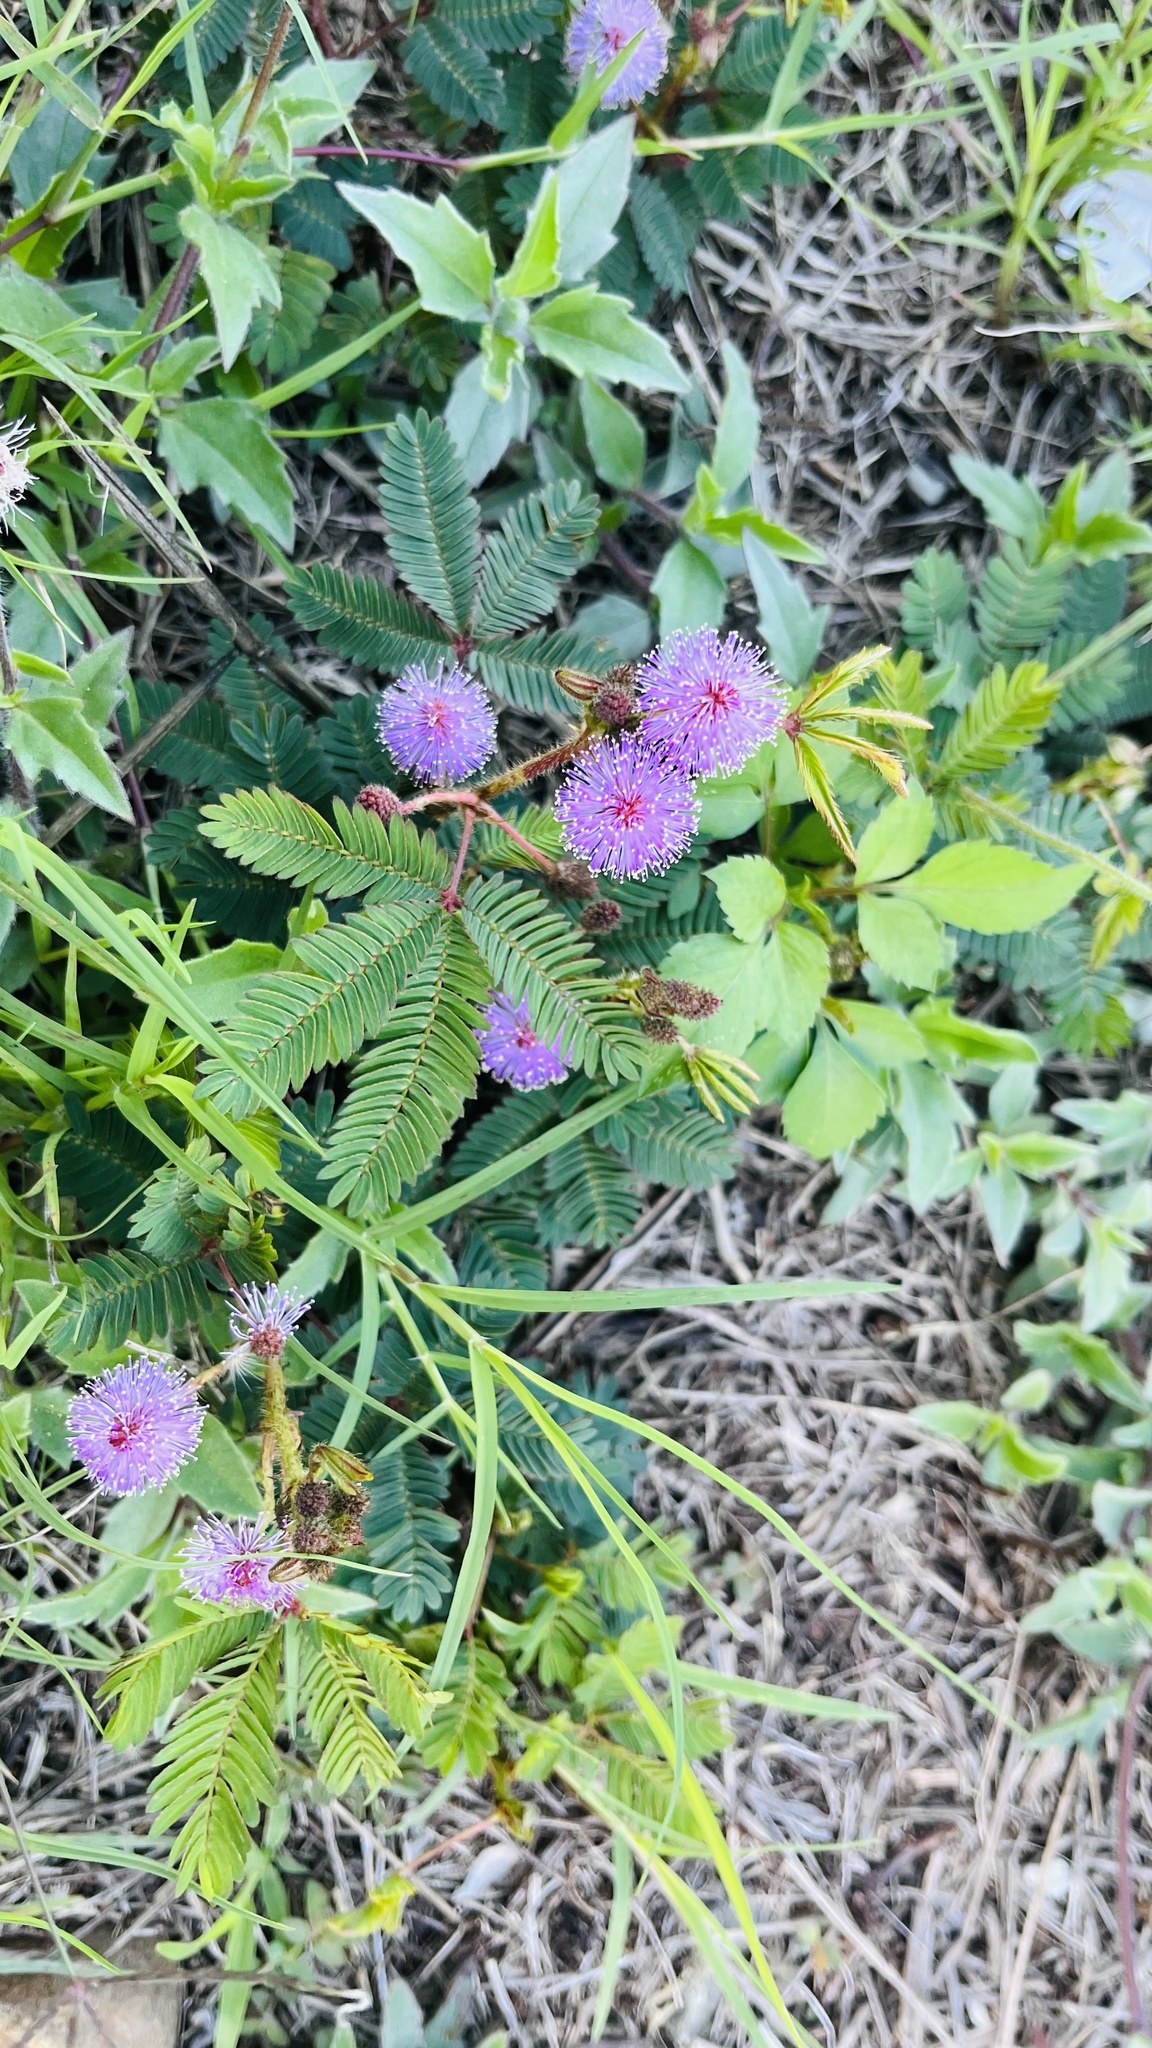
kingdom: Plantae
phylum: Tracheophyta
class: Magnoliopsida
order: Fabales
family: Fabaceae
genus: Mimosa
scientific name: Mimosa pudica
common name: Sensitive plant
